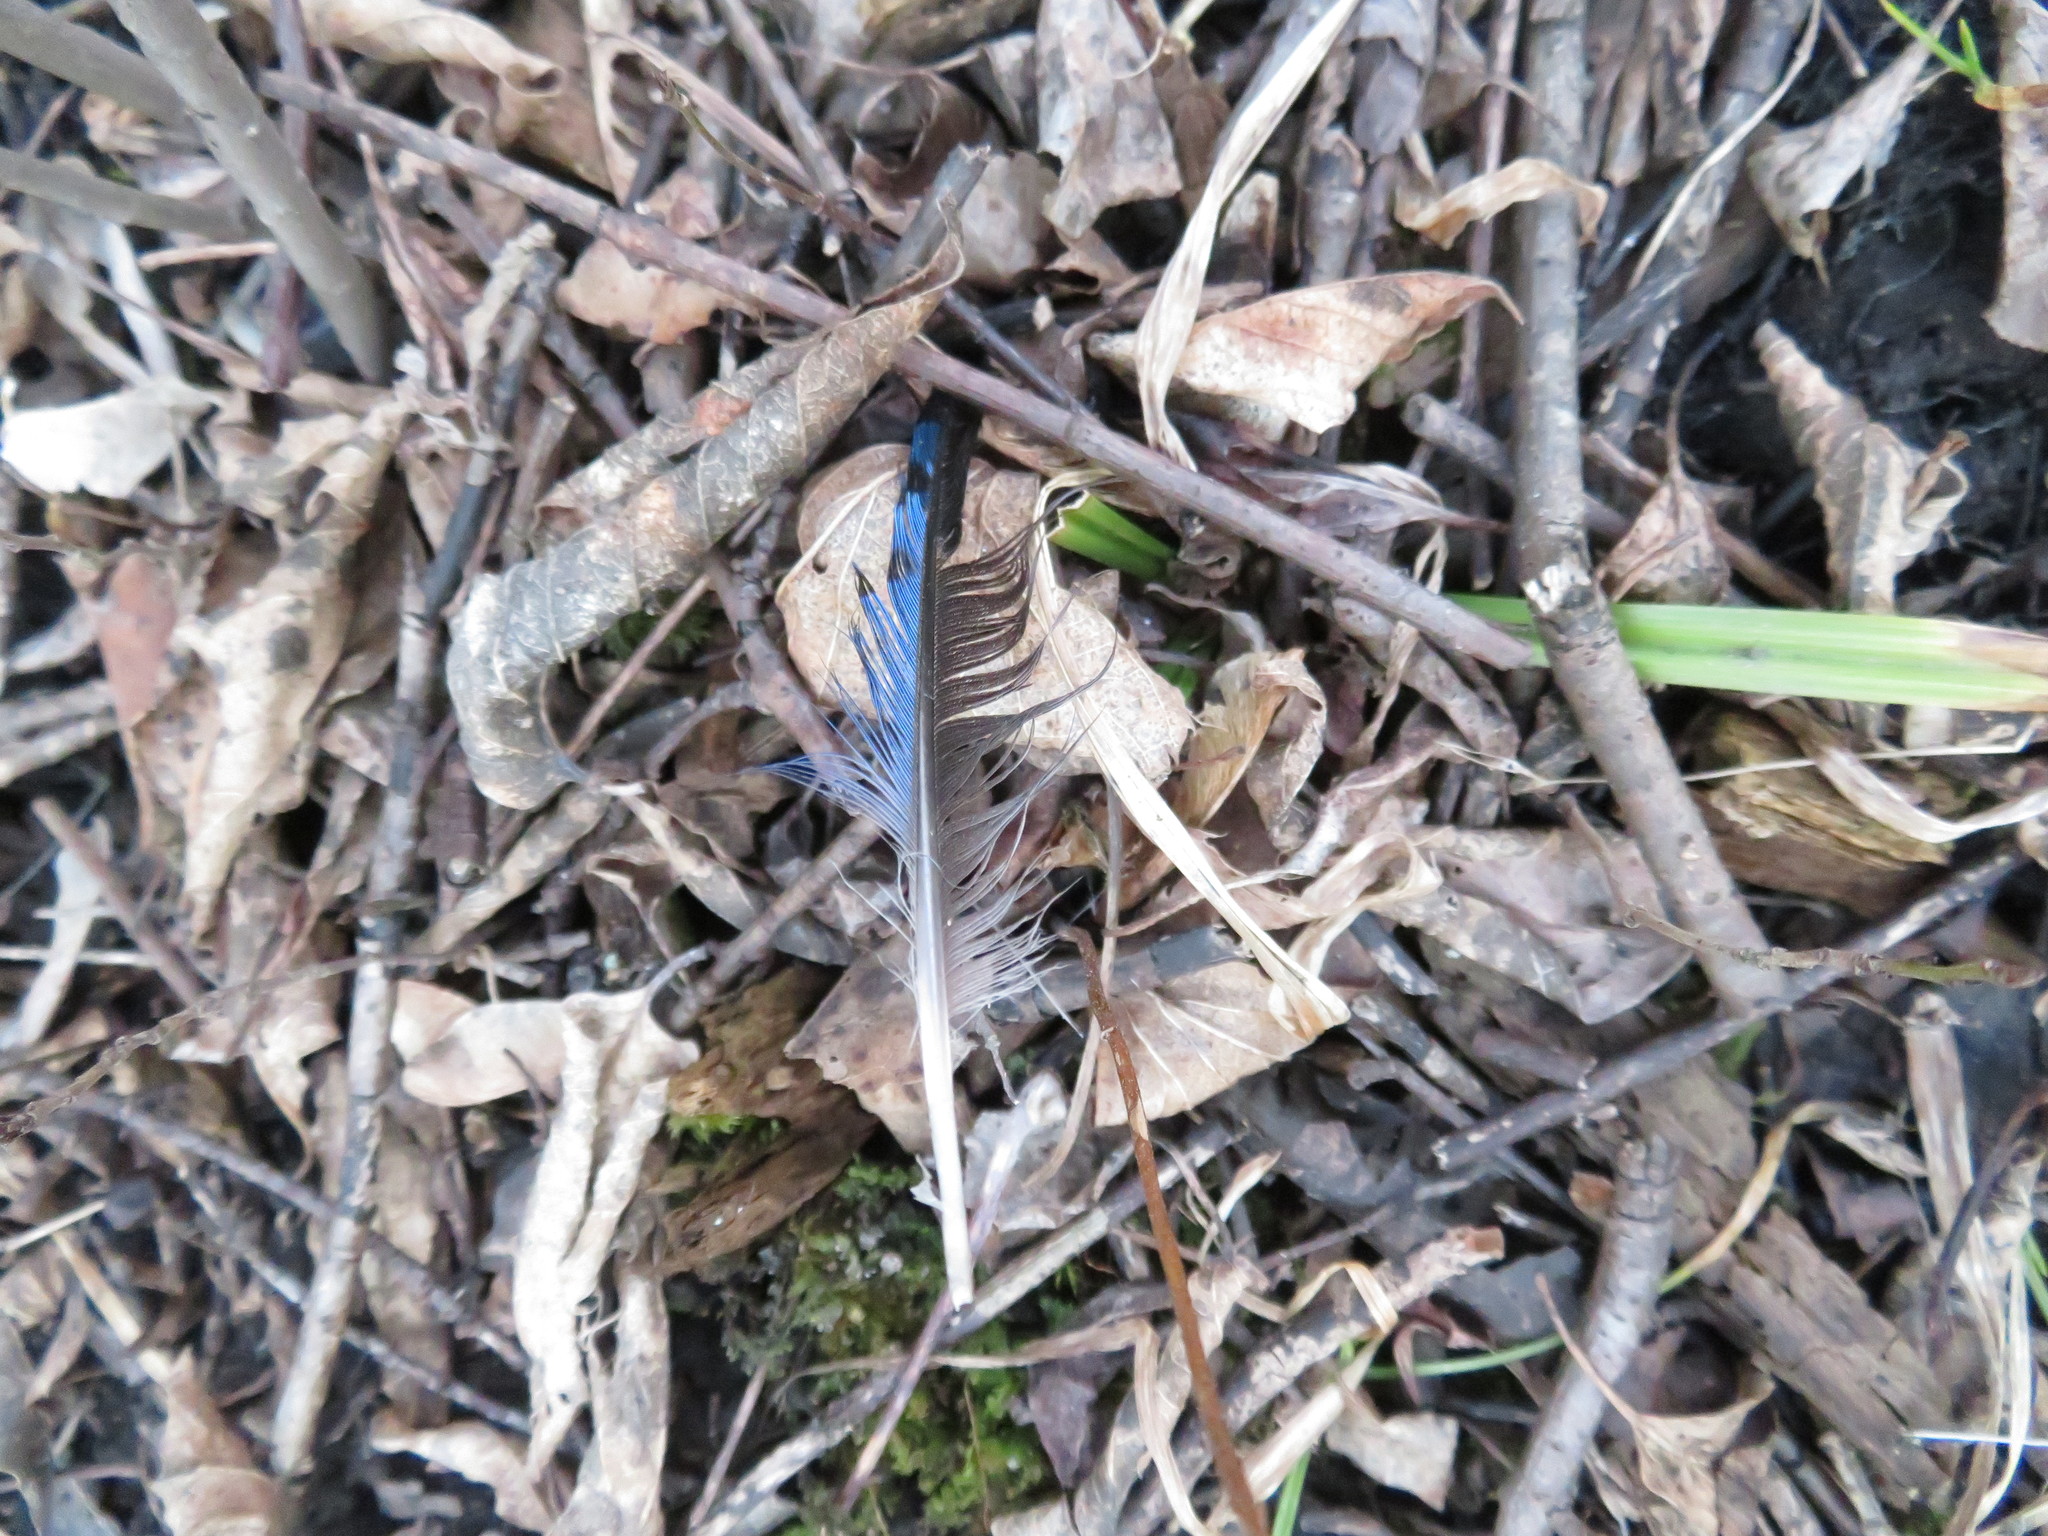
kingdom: Animalia
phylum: Chordata
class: Aves
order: Passeriformes
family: Corvidae
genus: Cyanocitta
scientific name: Cyanocitta cristata
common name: Blue jay
